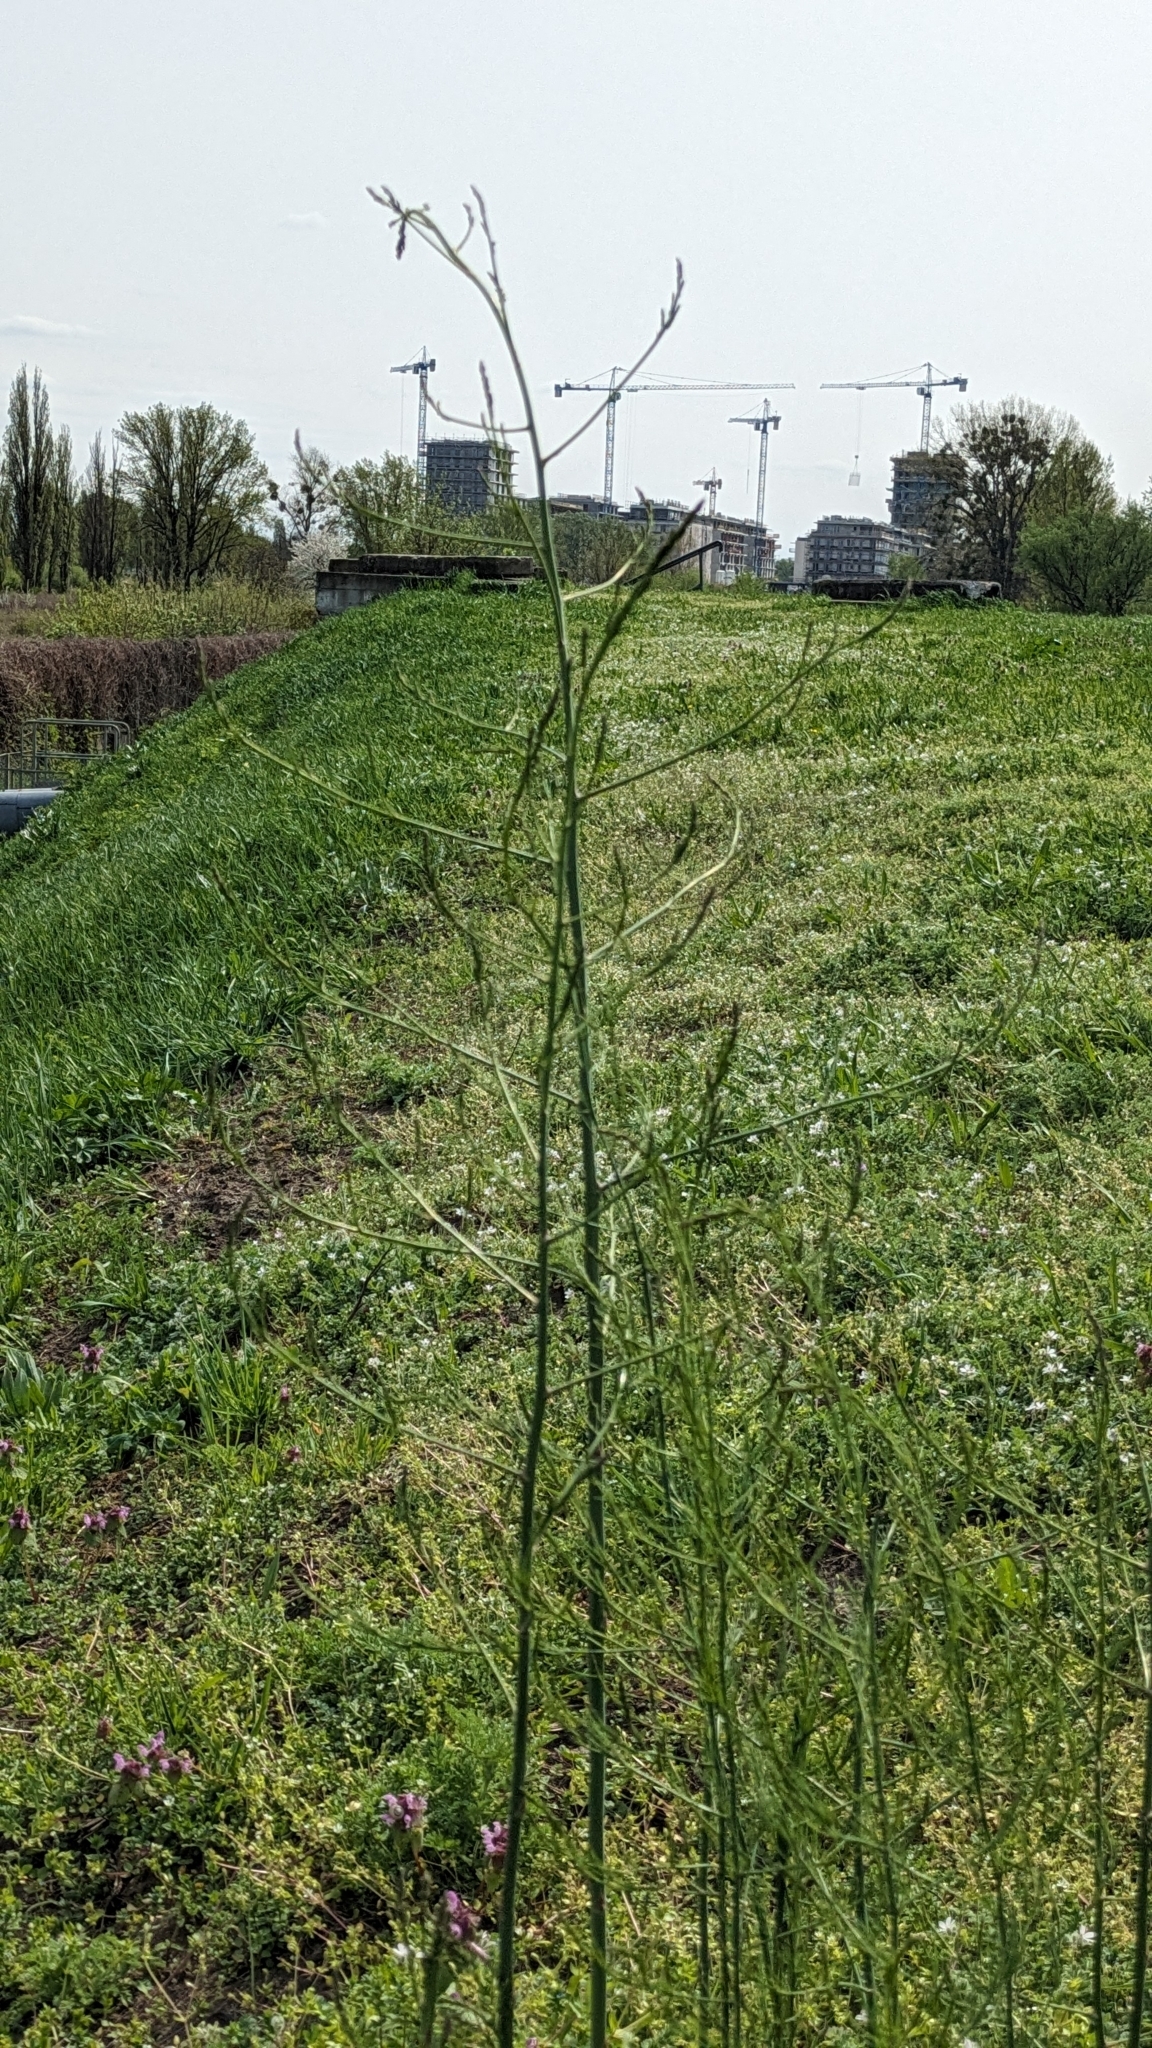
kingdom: Plantae
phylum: Tracheophyta
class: Liliopsida
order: Asparagales
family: Asparagaceae
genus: Asparagus
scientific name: Asparagus officinalis
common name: Garden asparagus
